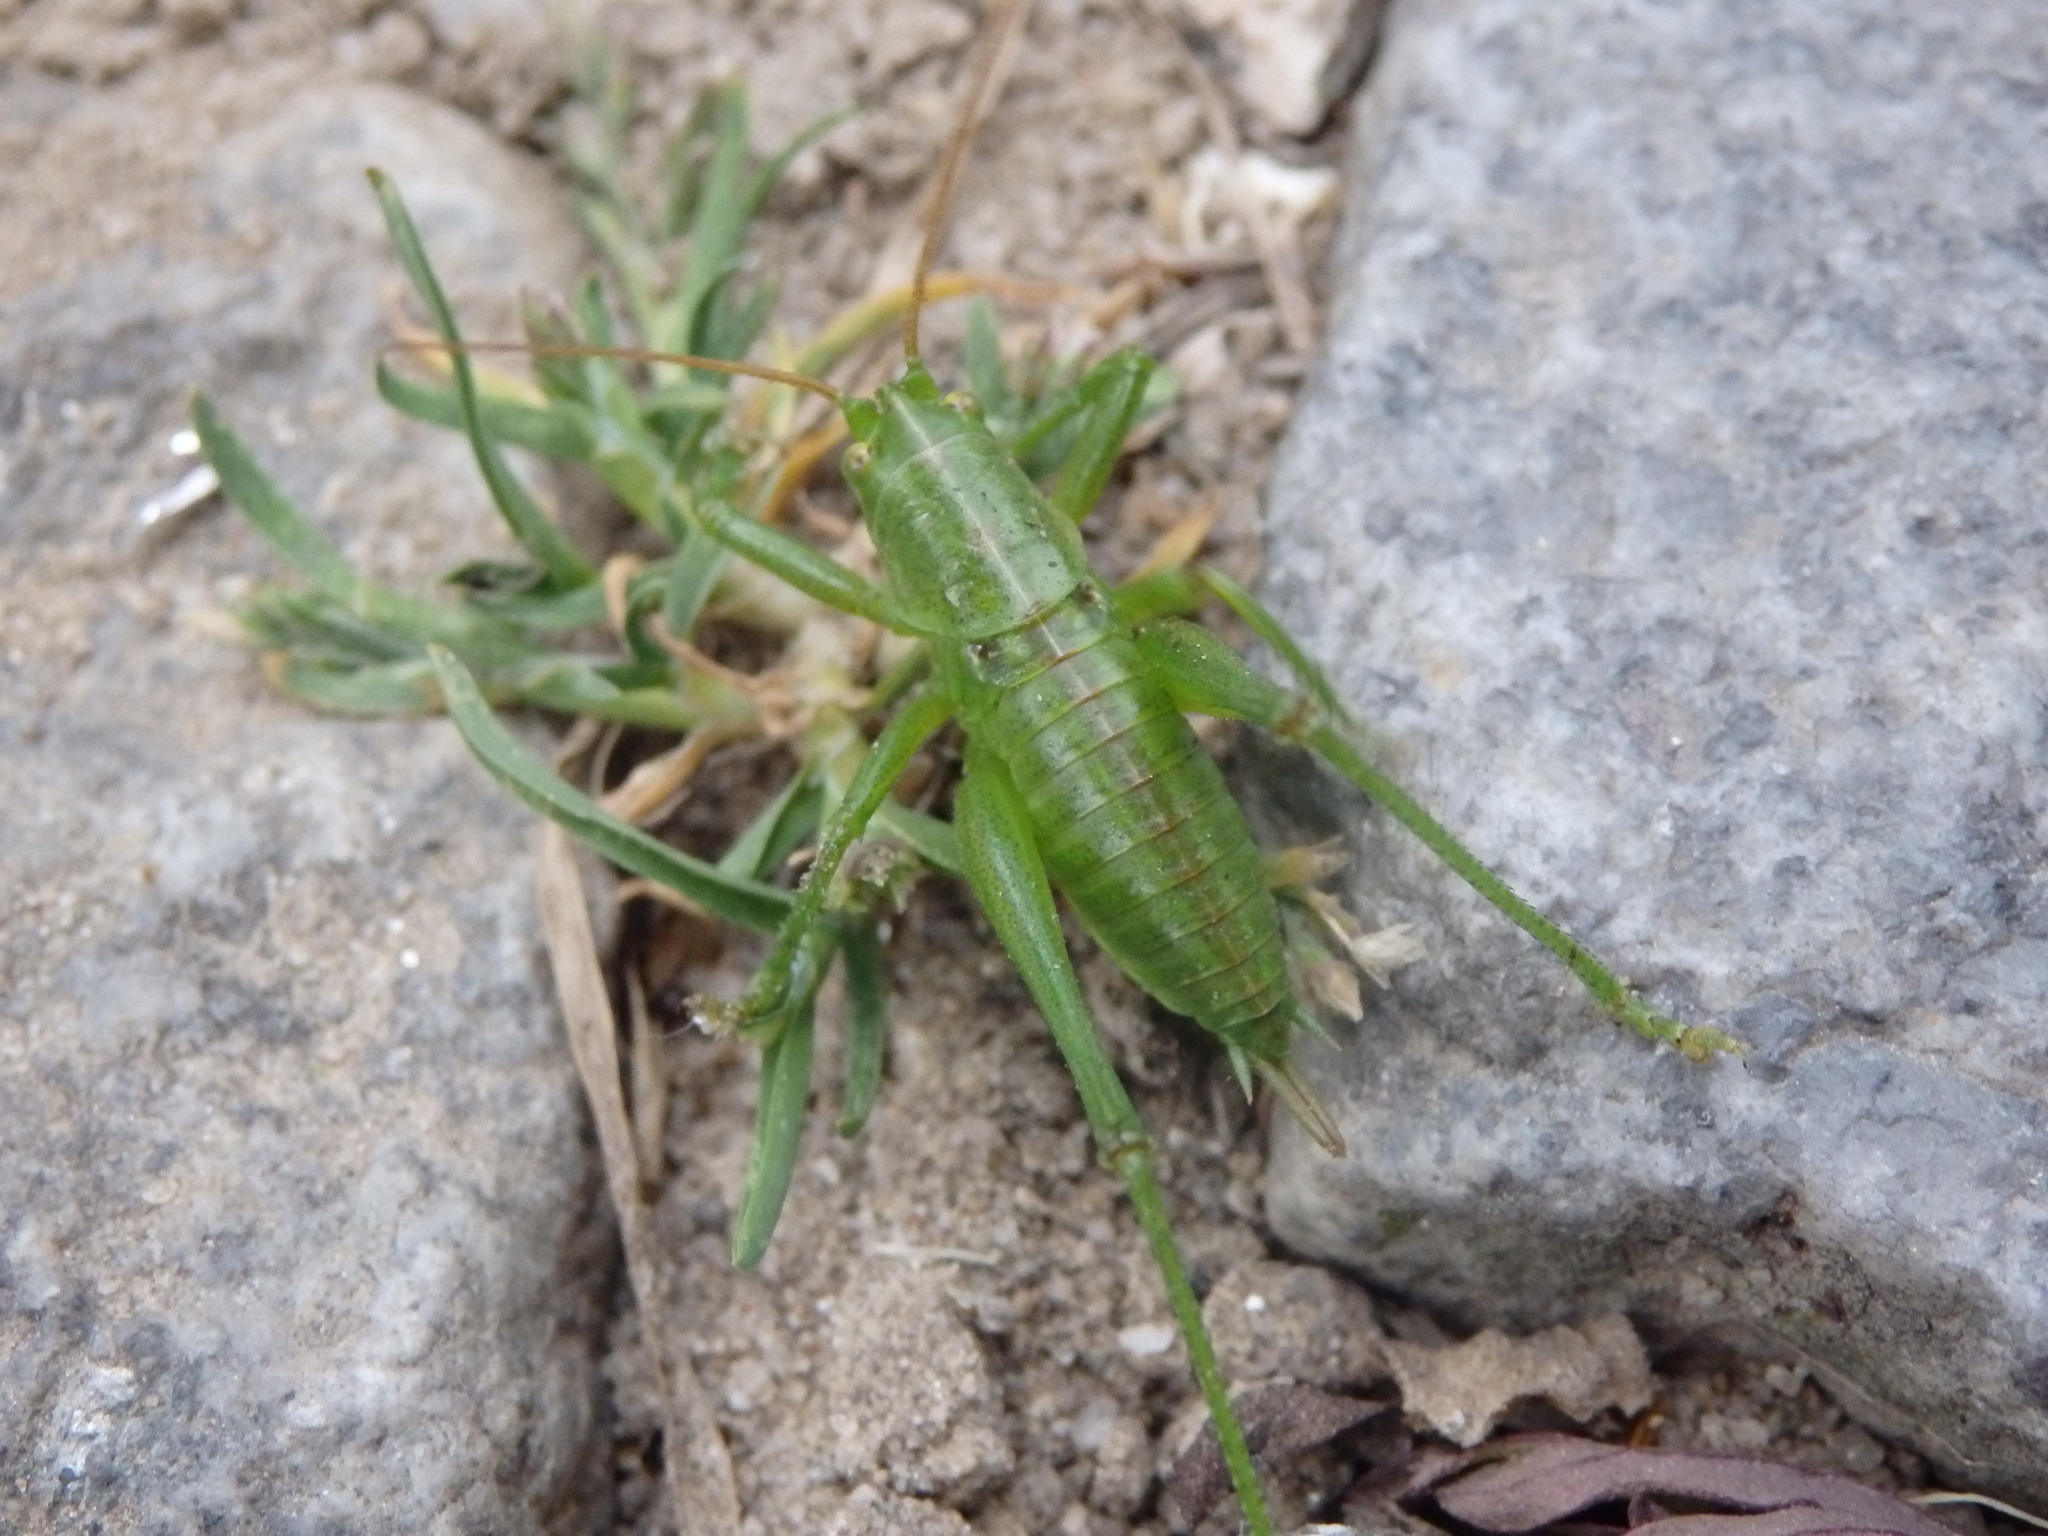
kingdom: Animalia
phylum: Arthropoda
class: Insecta
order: Orthoptera
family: Tettigoniidae
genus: Tettigonia
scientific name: Tettigonia viridissima
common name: Great green bush-cricket
